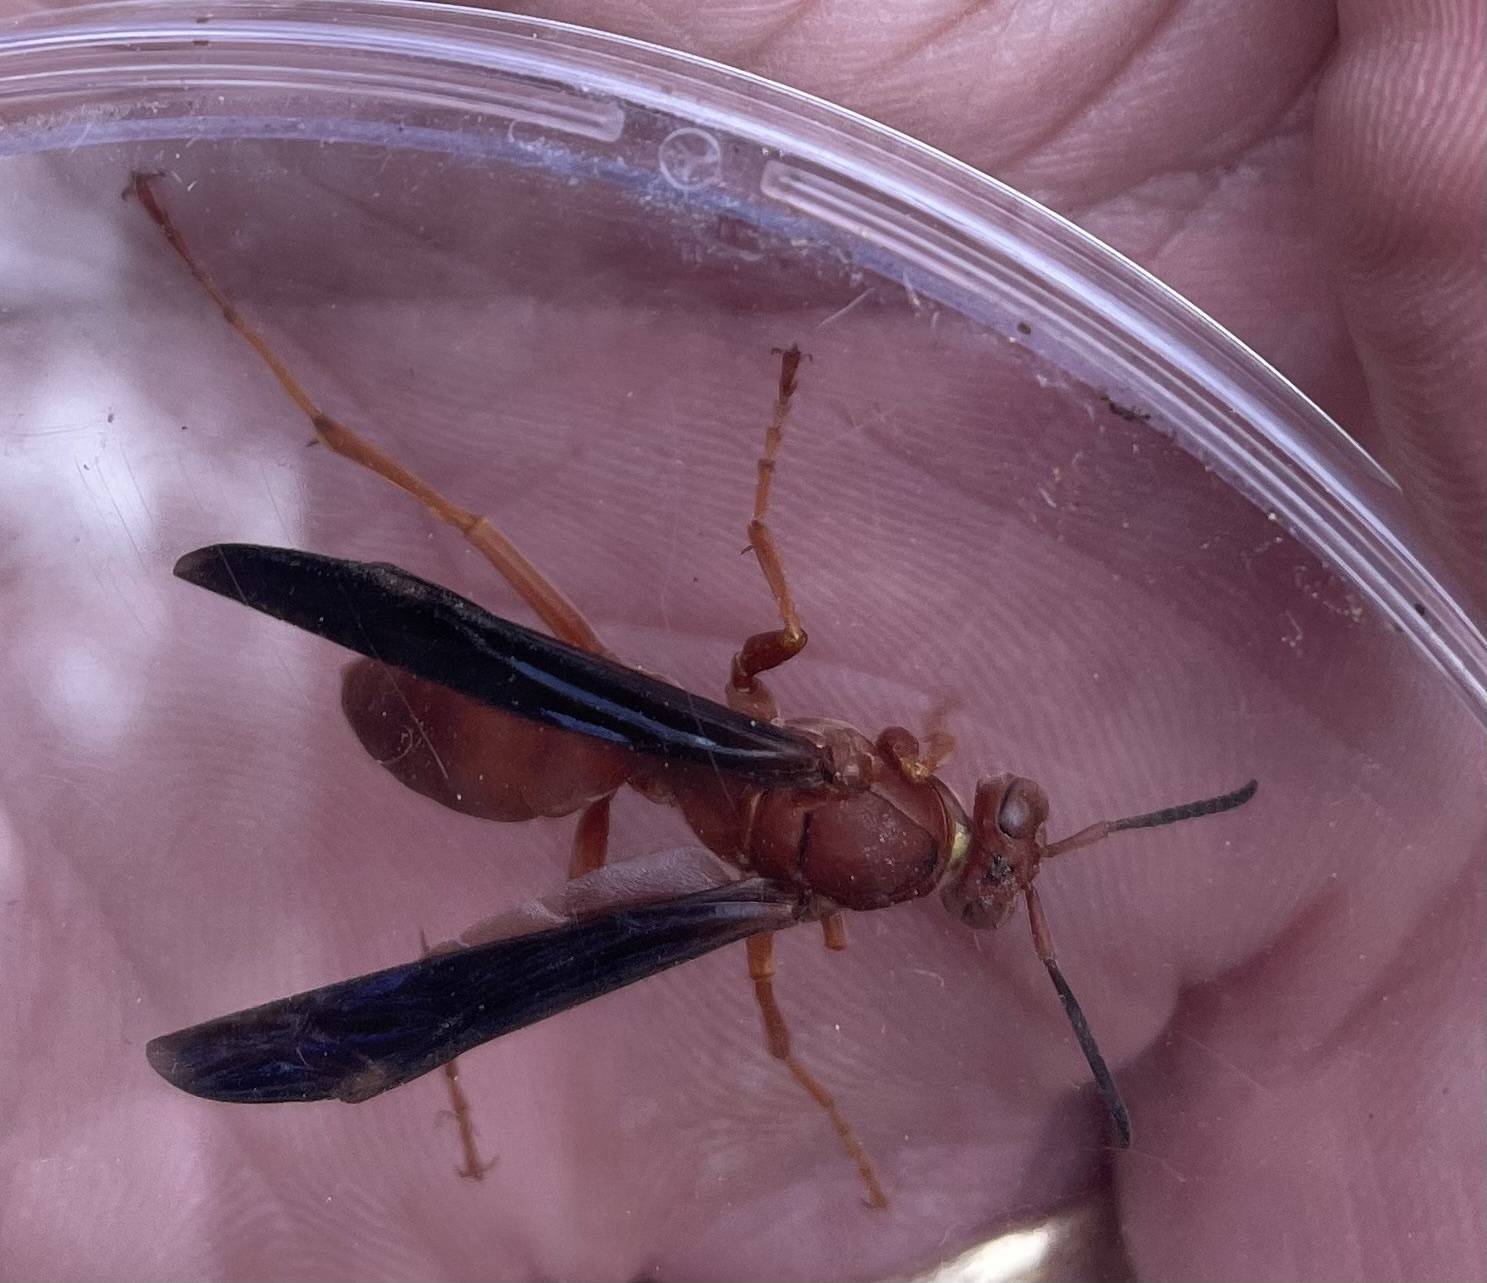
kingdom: Animalia
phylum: Arthropoda
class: Insecta
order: Hymenoptera
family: Vespidae
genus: Fuscopolistes
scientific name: Fuscopolistes
